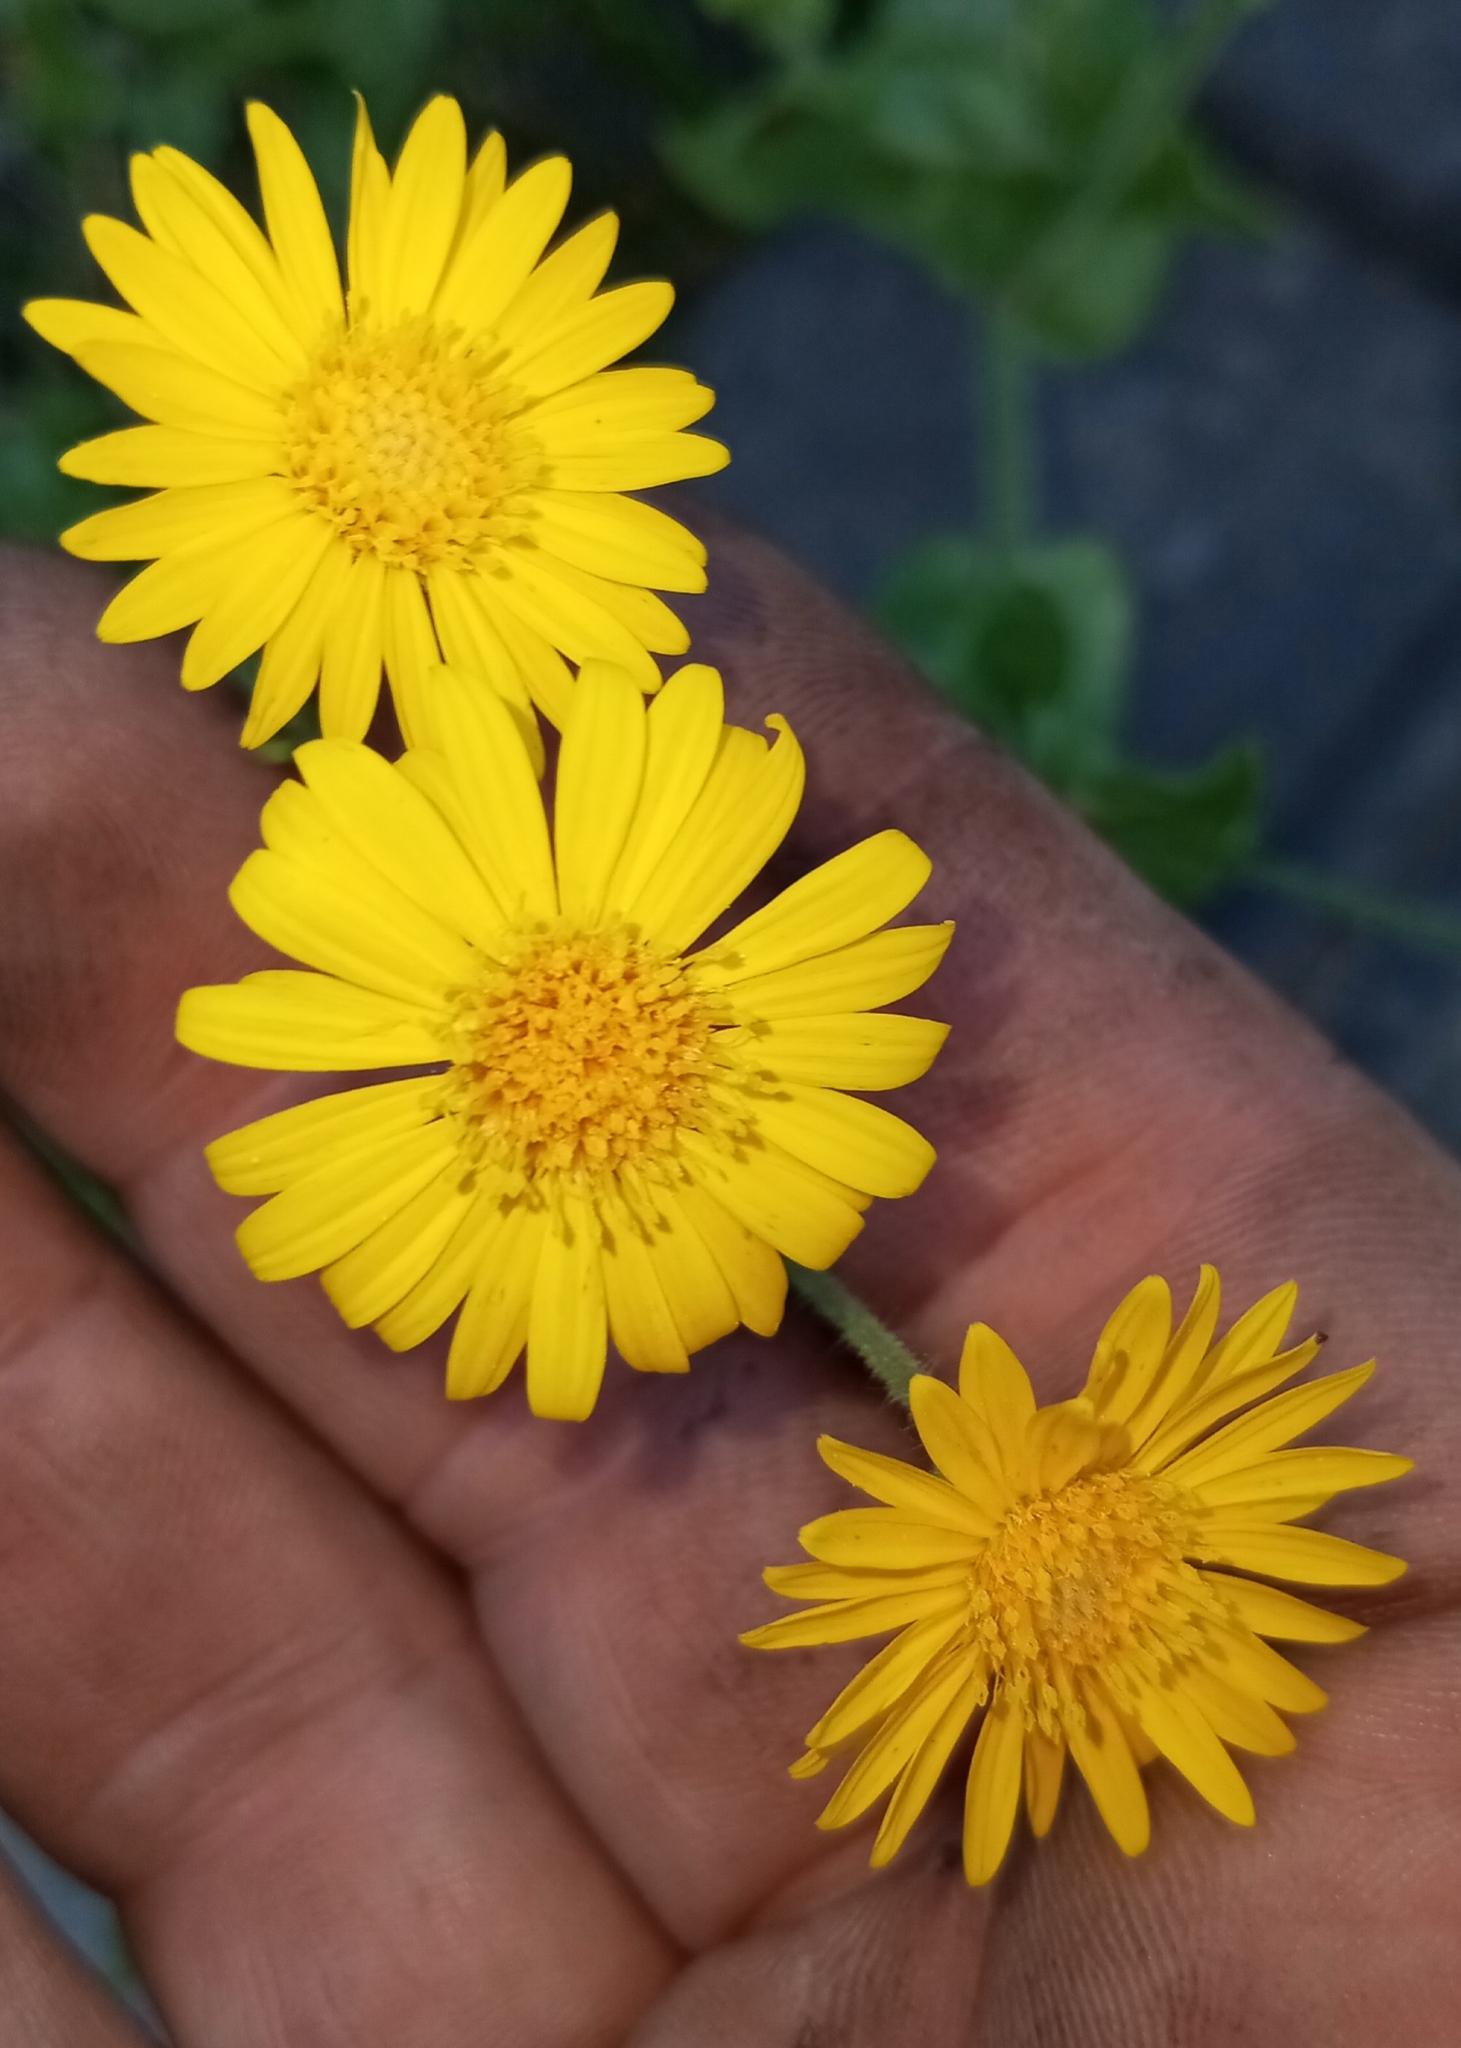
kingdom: Plantae
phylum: Tracheophyta
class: Magnoliopsida
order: Asterales
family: Asteraceae
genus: Heterotheca
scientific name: Heterotheca subaxillaris
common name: Camphorweed
